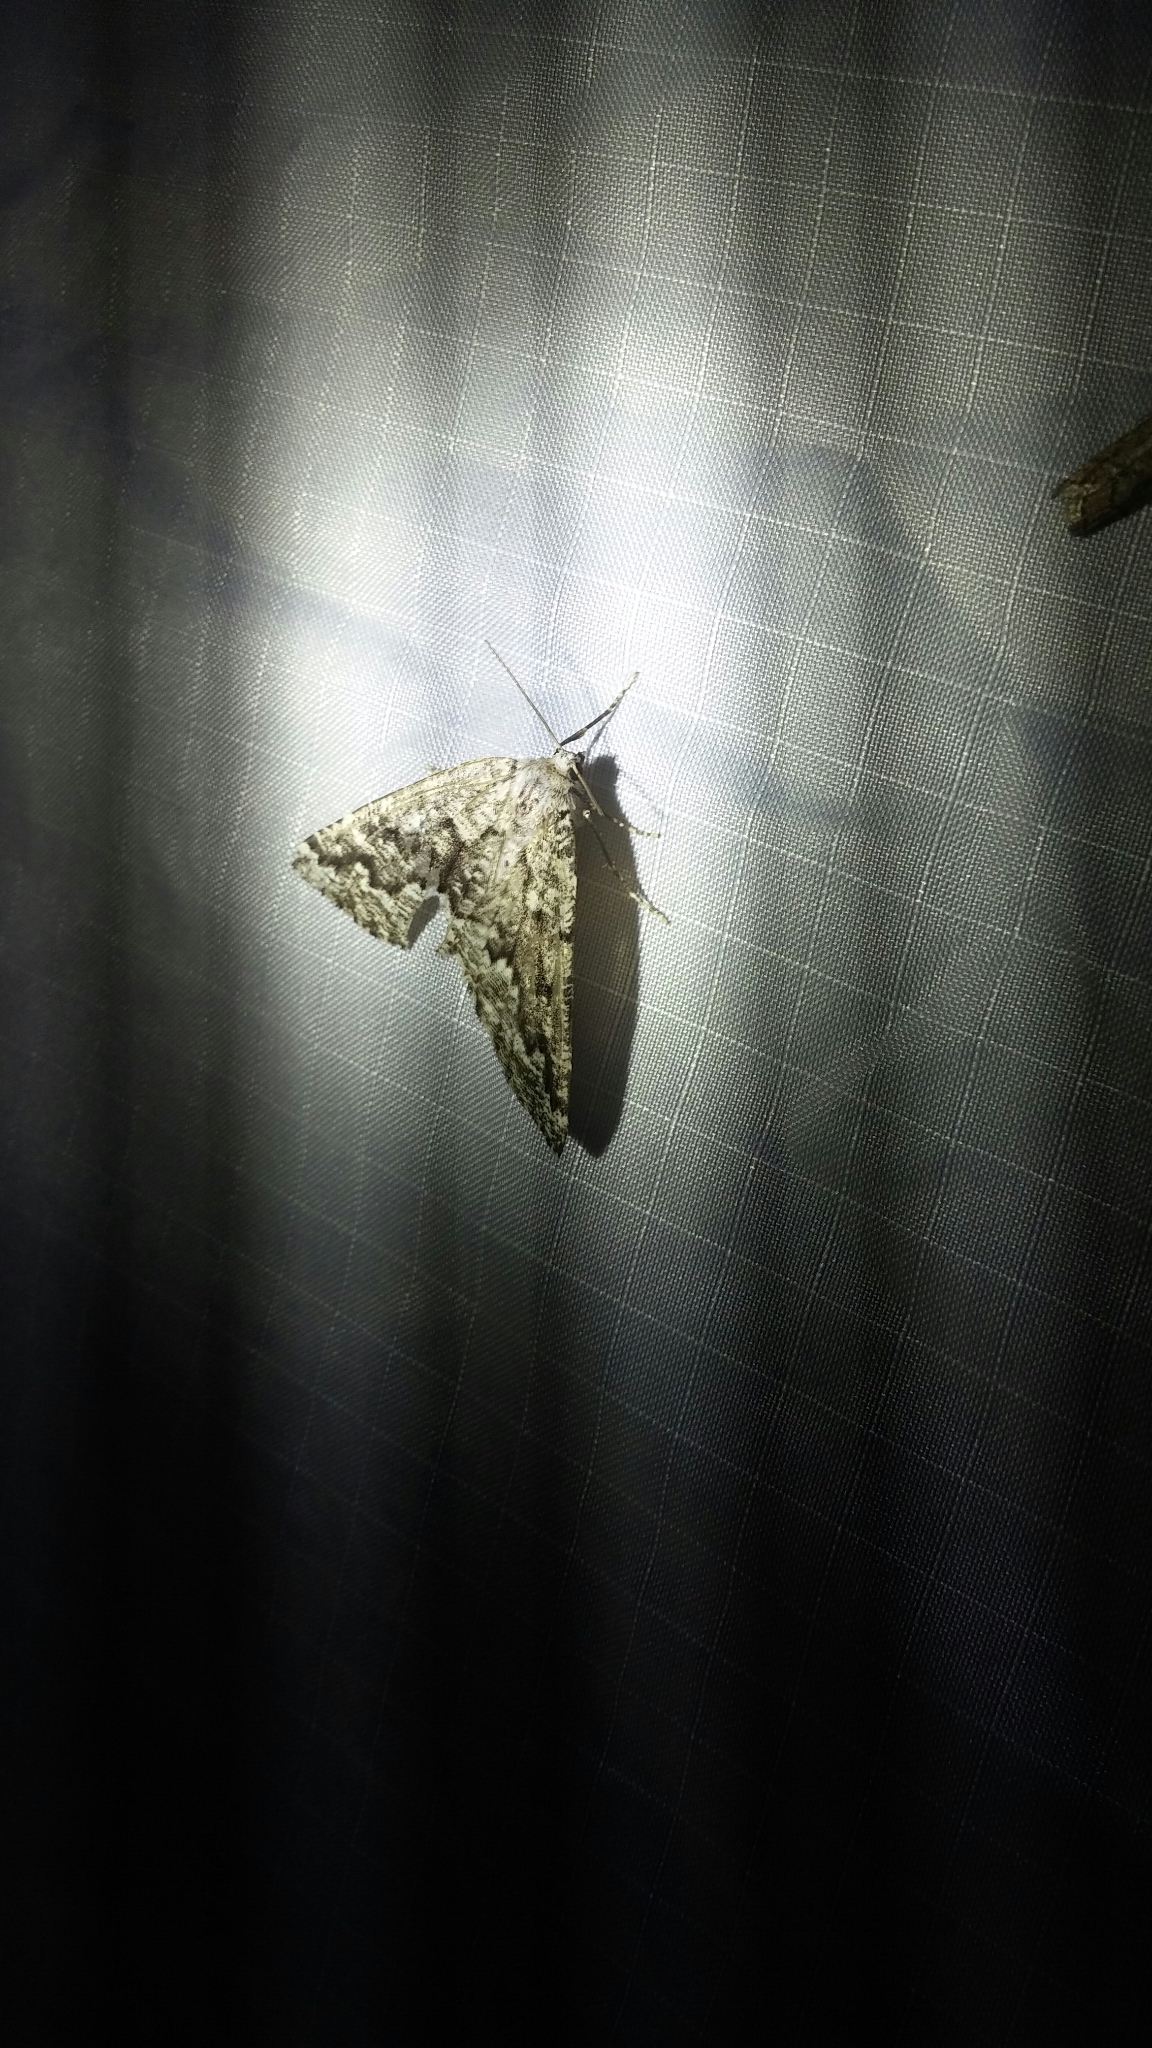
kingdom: Animalia
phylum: Arthropoda
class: Insecta
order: Lepidoptera
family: Geometridae
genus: Caripeta
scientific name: Caripeta divisata
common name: Gray spruce looper
